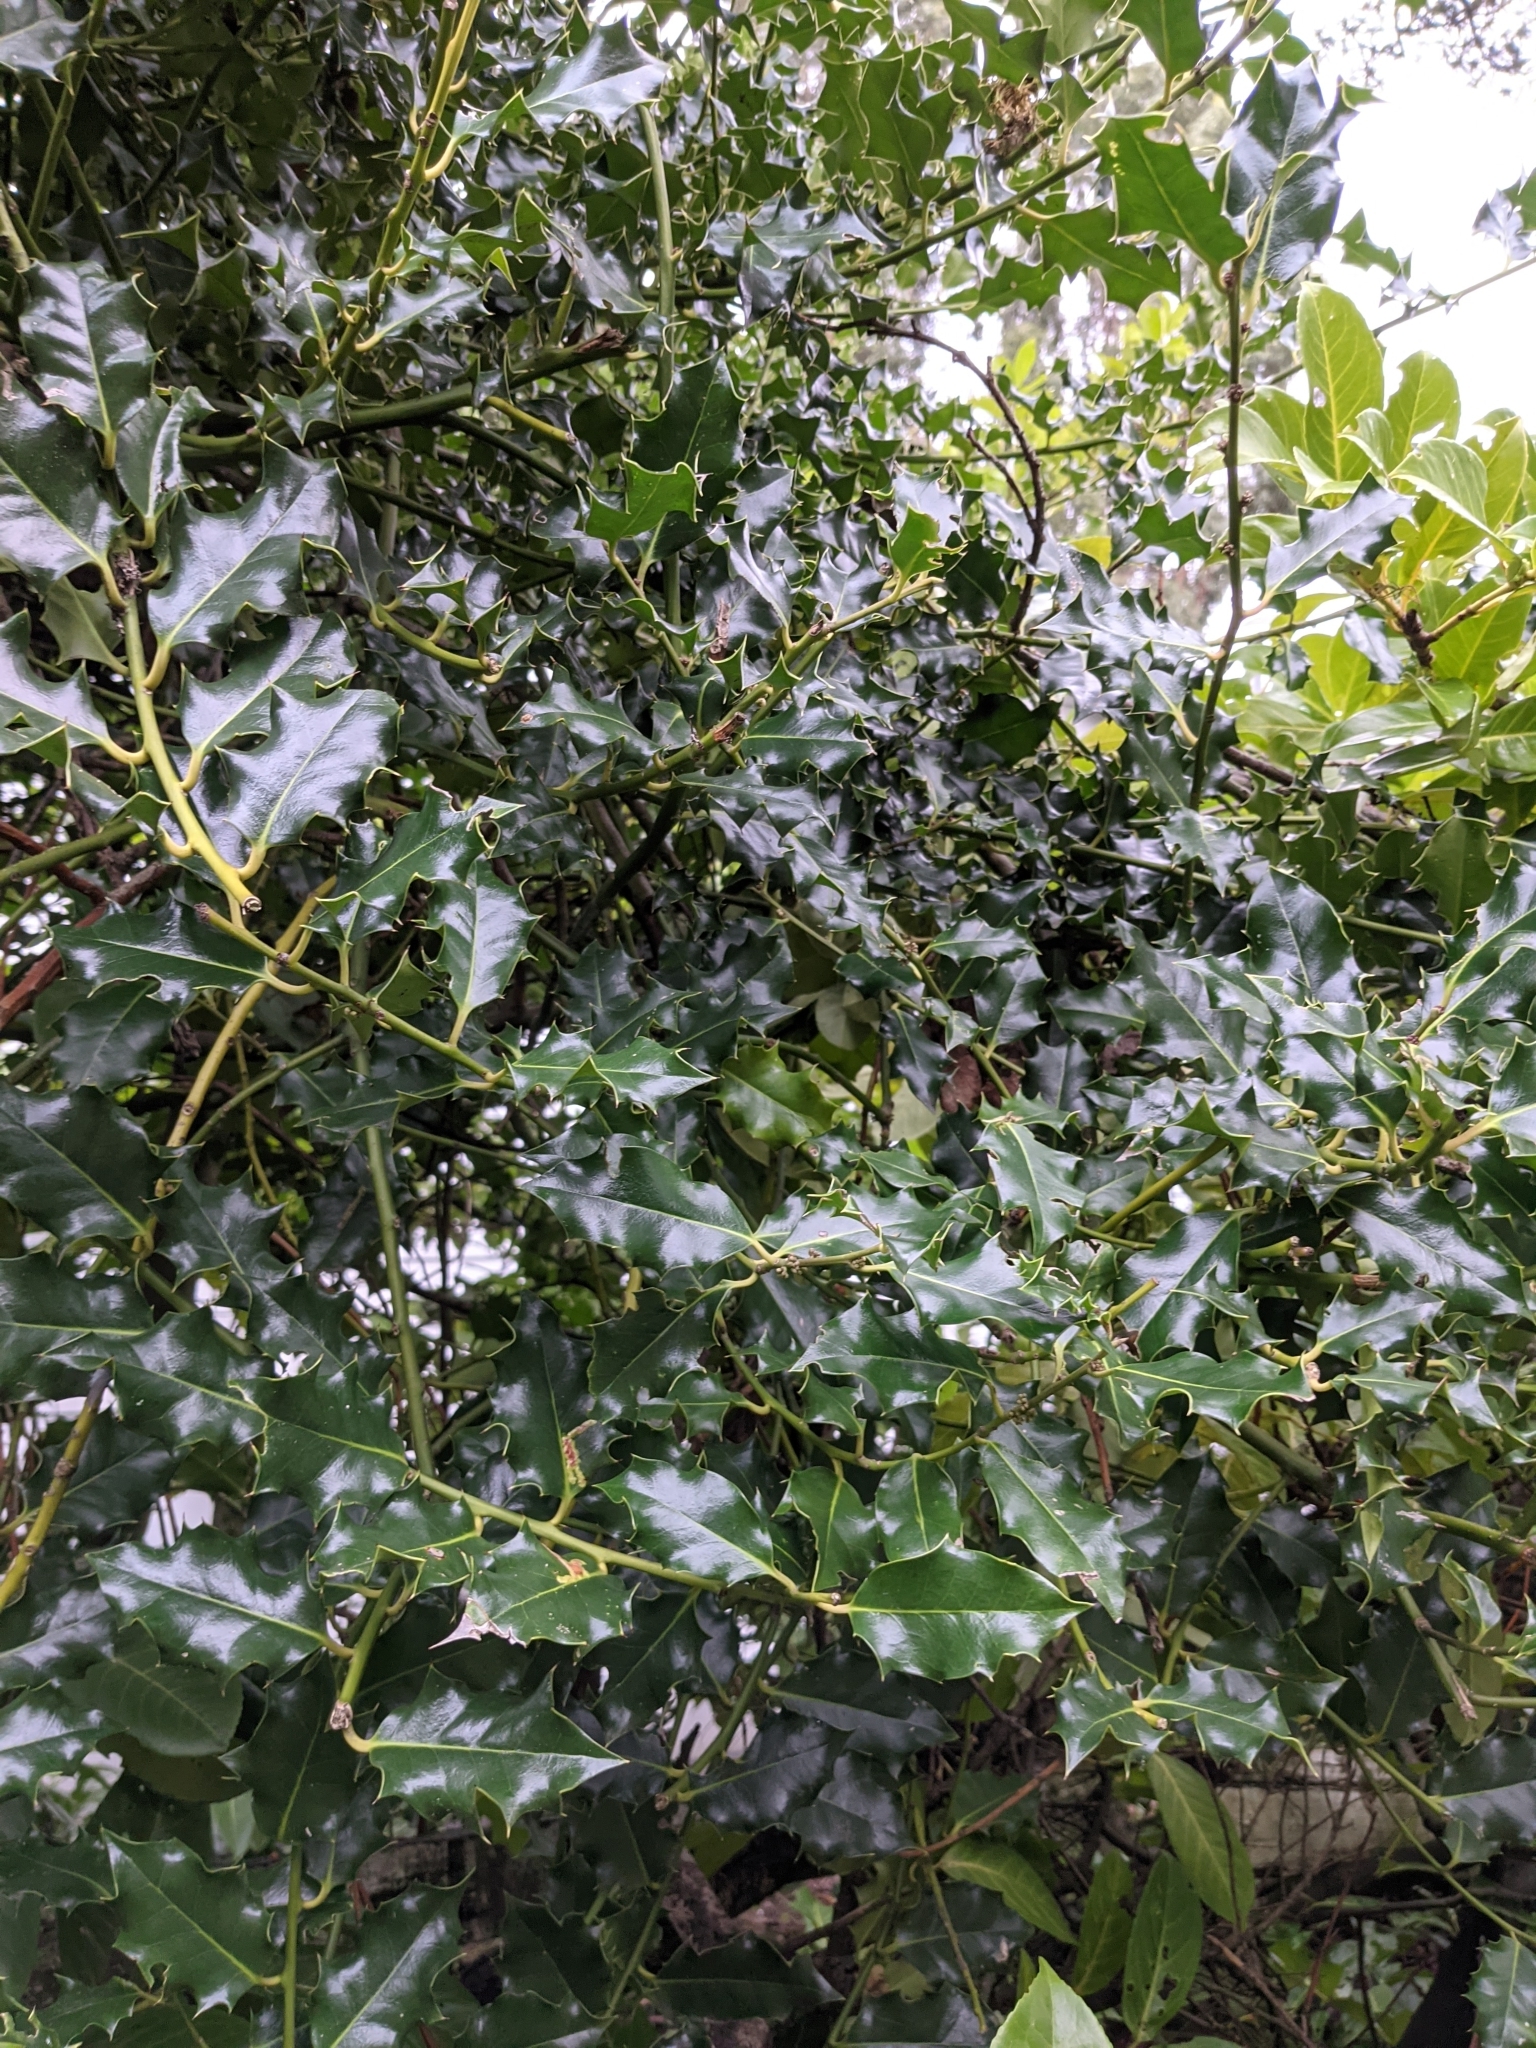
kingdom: Plantae
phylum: Tracheophyta
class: Magnoliopsida
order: Aquifoliales
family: Aquifoliaceae
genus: Ilex
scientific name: Ilex aquifolium
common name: English holly
